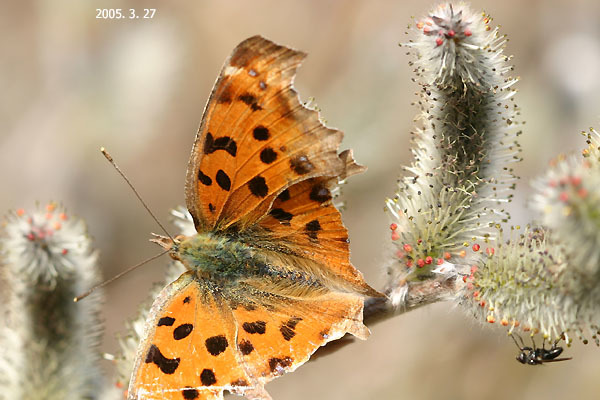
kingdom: Animalia
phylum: Arthropoda
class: Insecta
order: Lepidoptera
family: Nymphalidae
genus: Polygonia
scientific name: Polygonia c-aureum
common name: Asian comma
